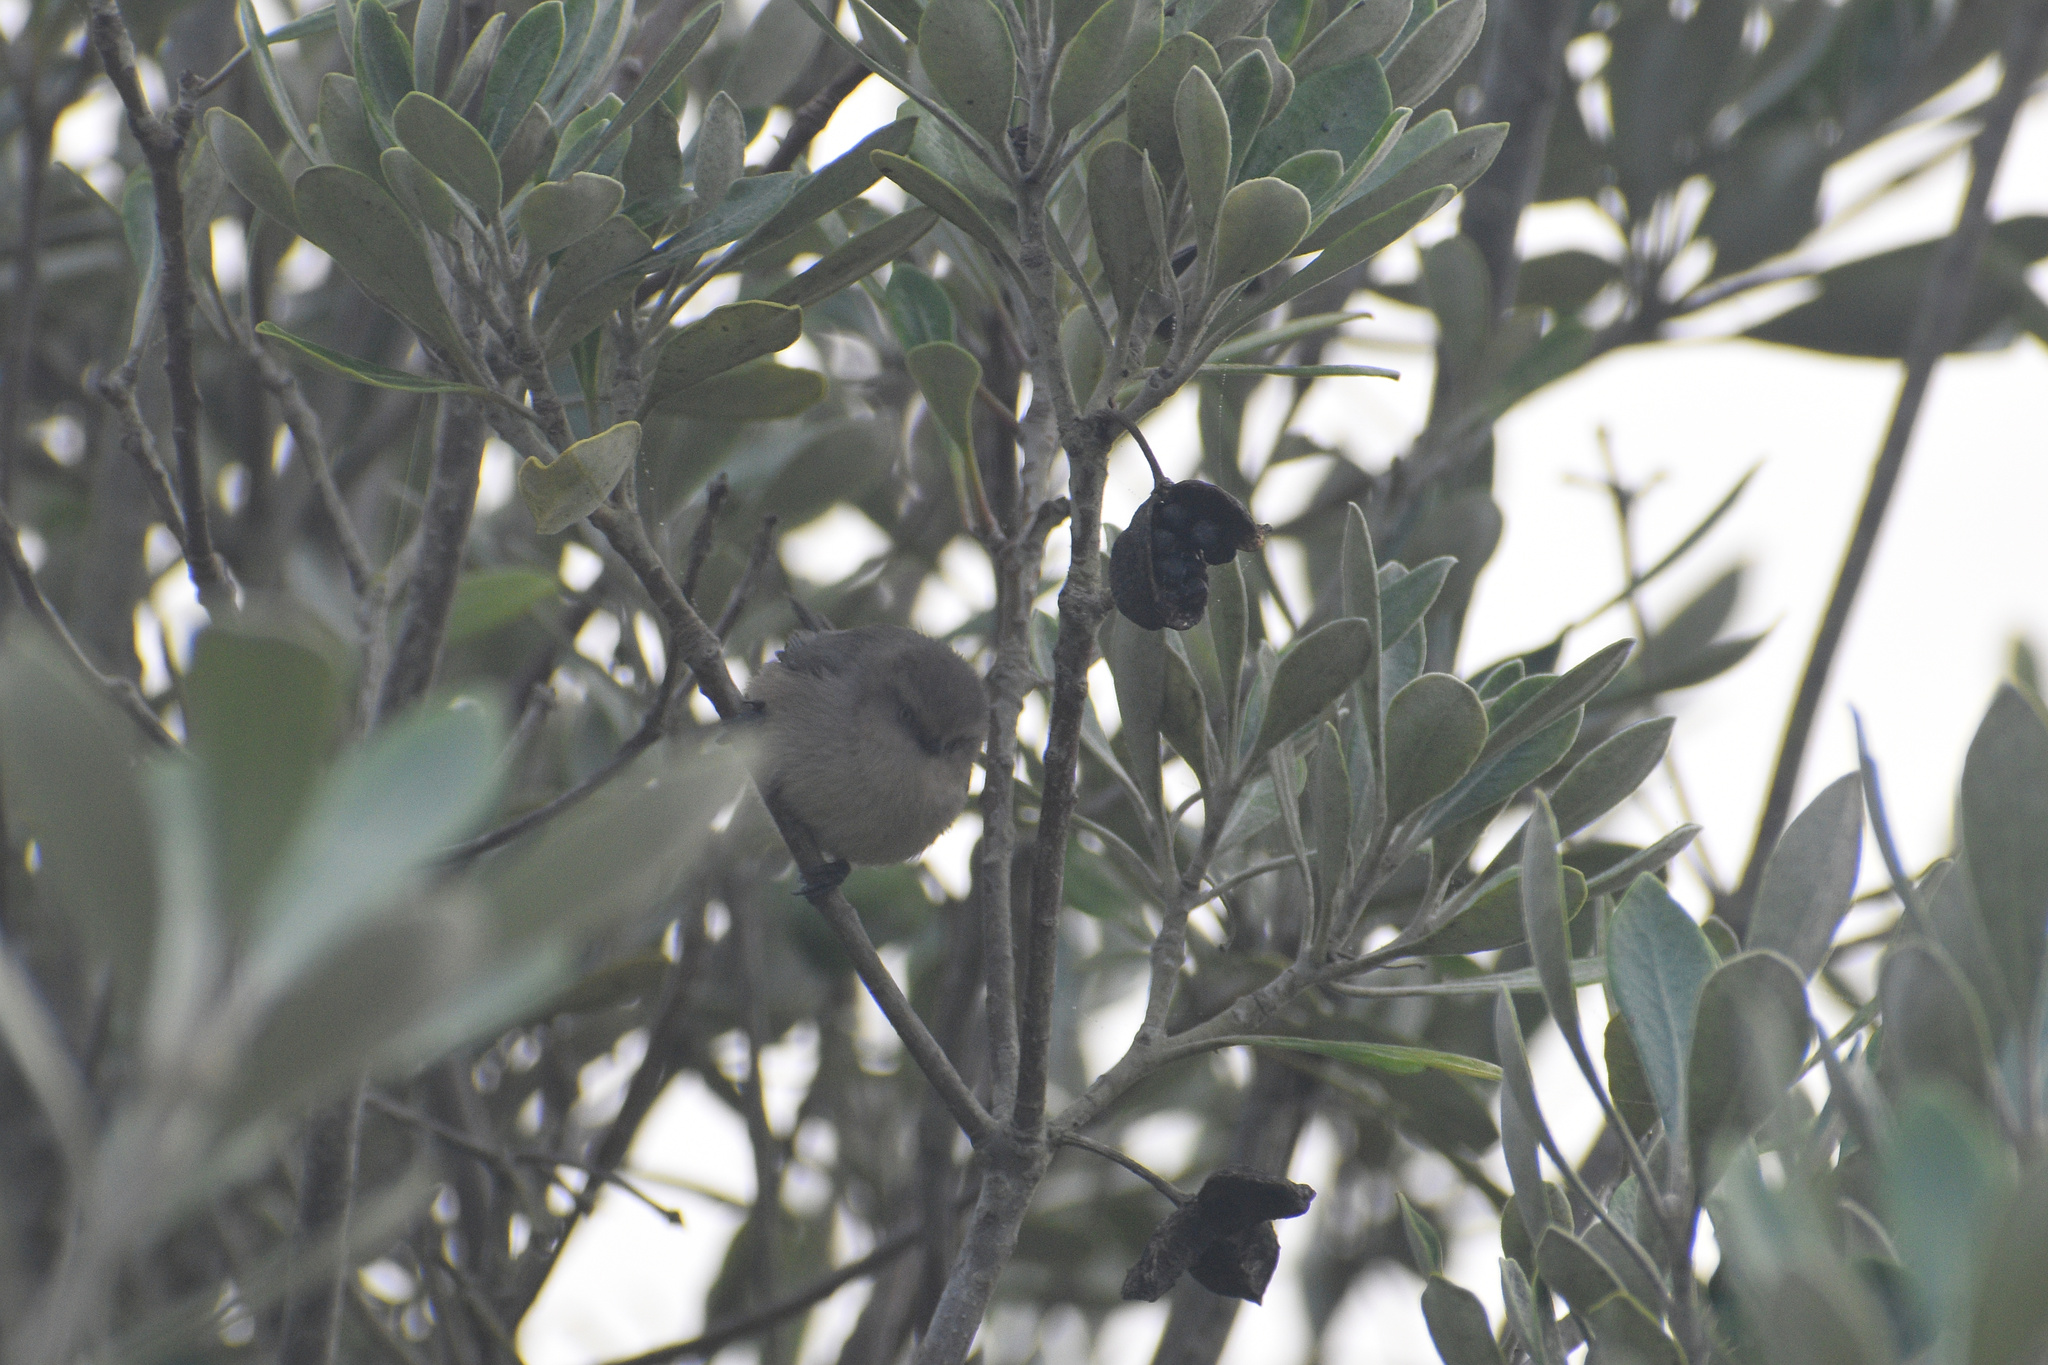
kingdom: Animalia
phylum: Chordata
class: Aves
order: Passeriformes
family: Aegithalidae
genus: Psaltriparus
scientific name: Psaltriparus minimus
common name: American bushtit
